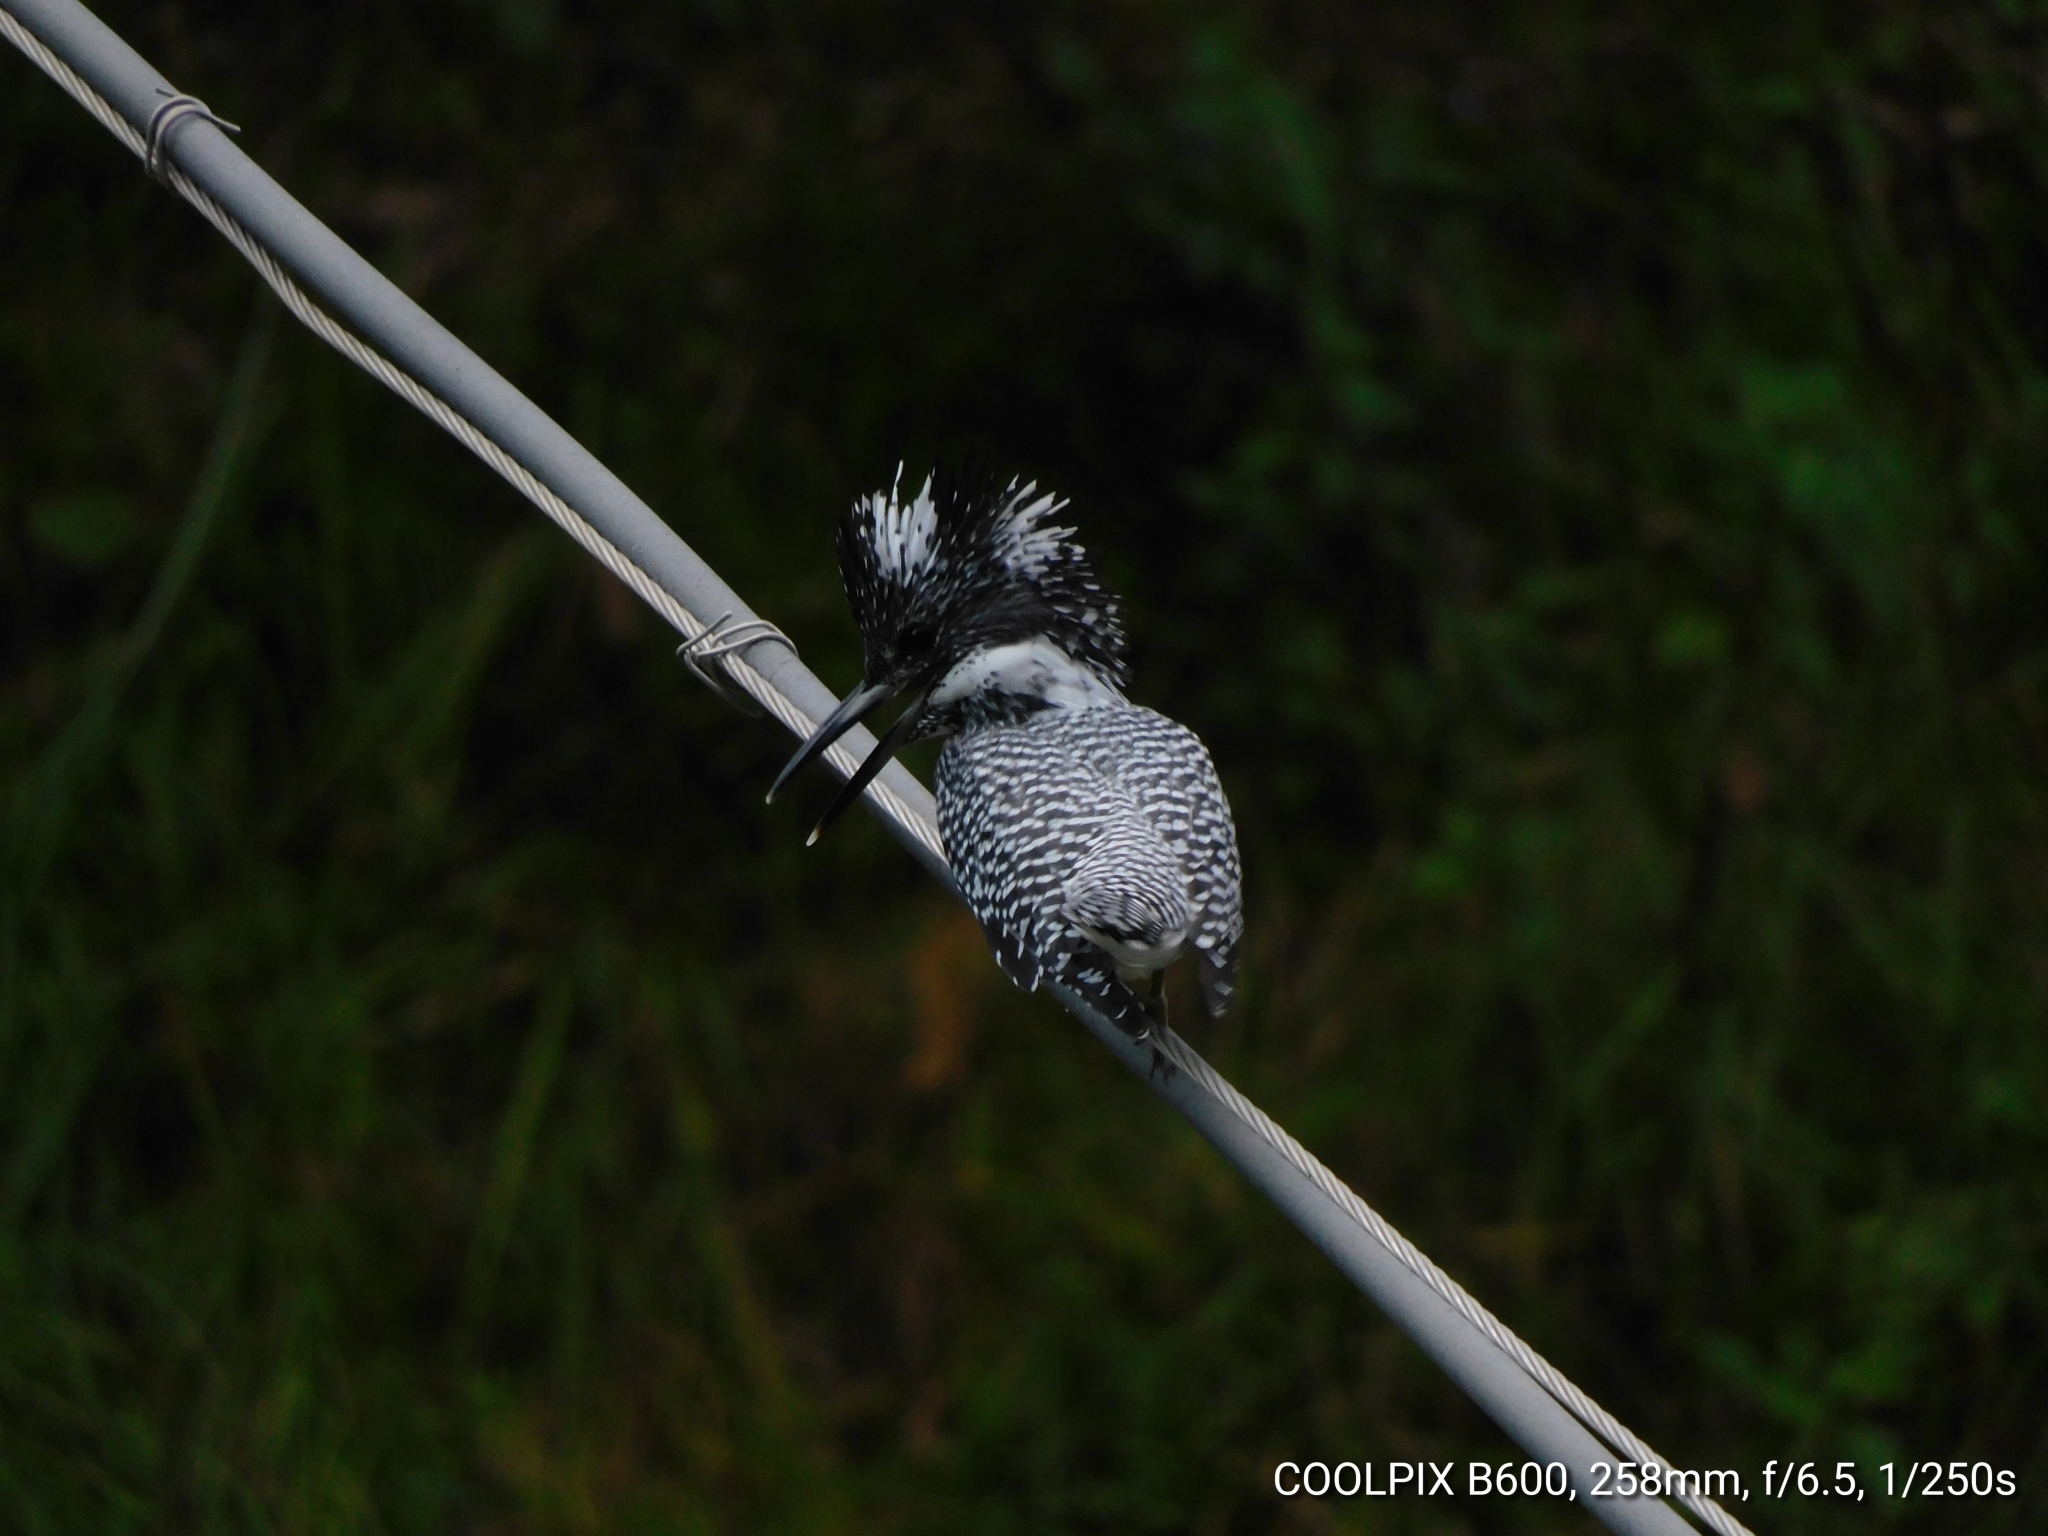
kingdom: Animalia
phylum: Chordata
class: Aves
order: Coraciiformes
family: Alcedinidae
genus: Megaceryle
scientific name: Megaceryle lugubris
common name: Crested kingfisher
